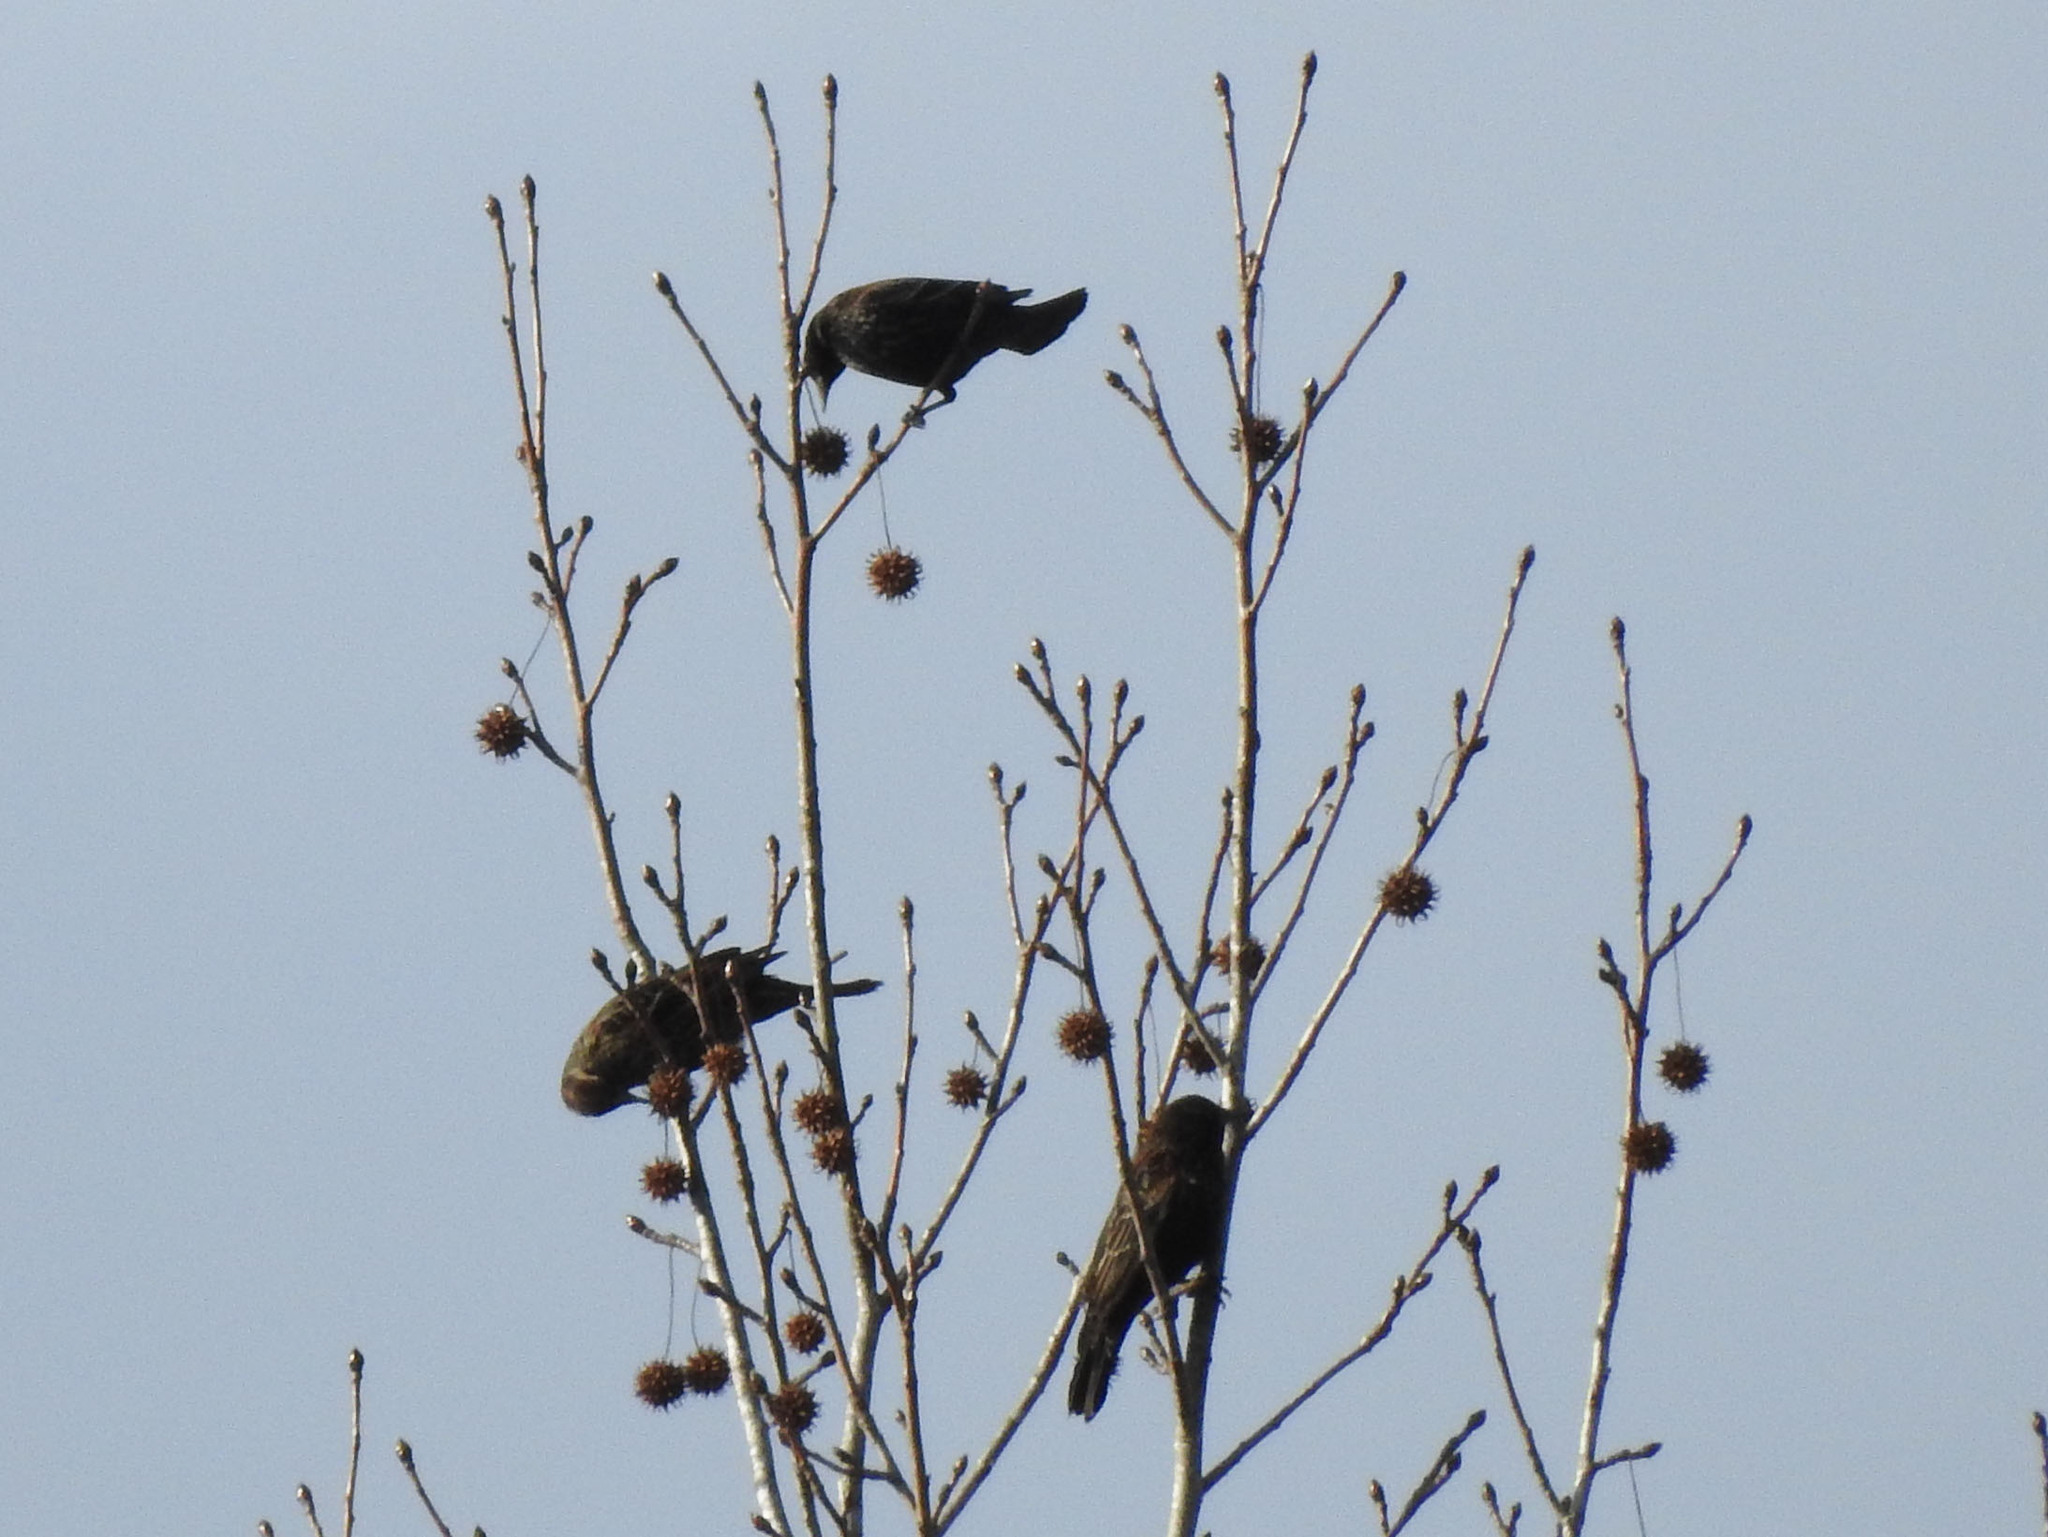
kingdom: Animalia
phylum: Chordata
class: Aves
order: Passeriformes
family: Icteridae
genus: Agelaius
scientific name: Agelaius phoeniceus
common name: Red-winged blackbird
